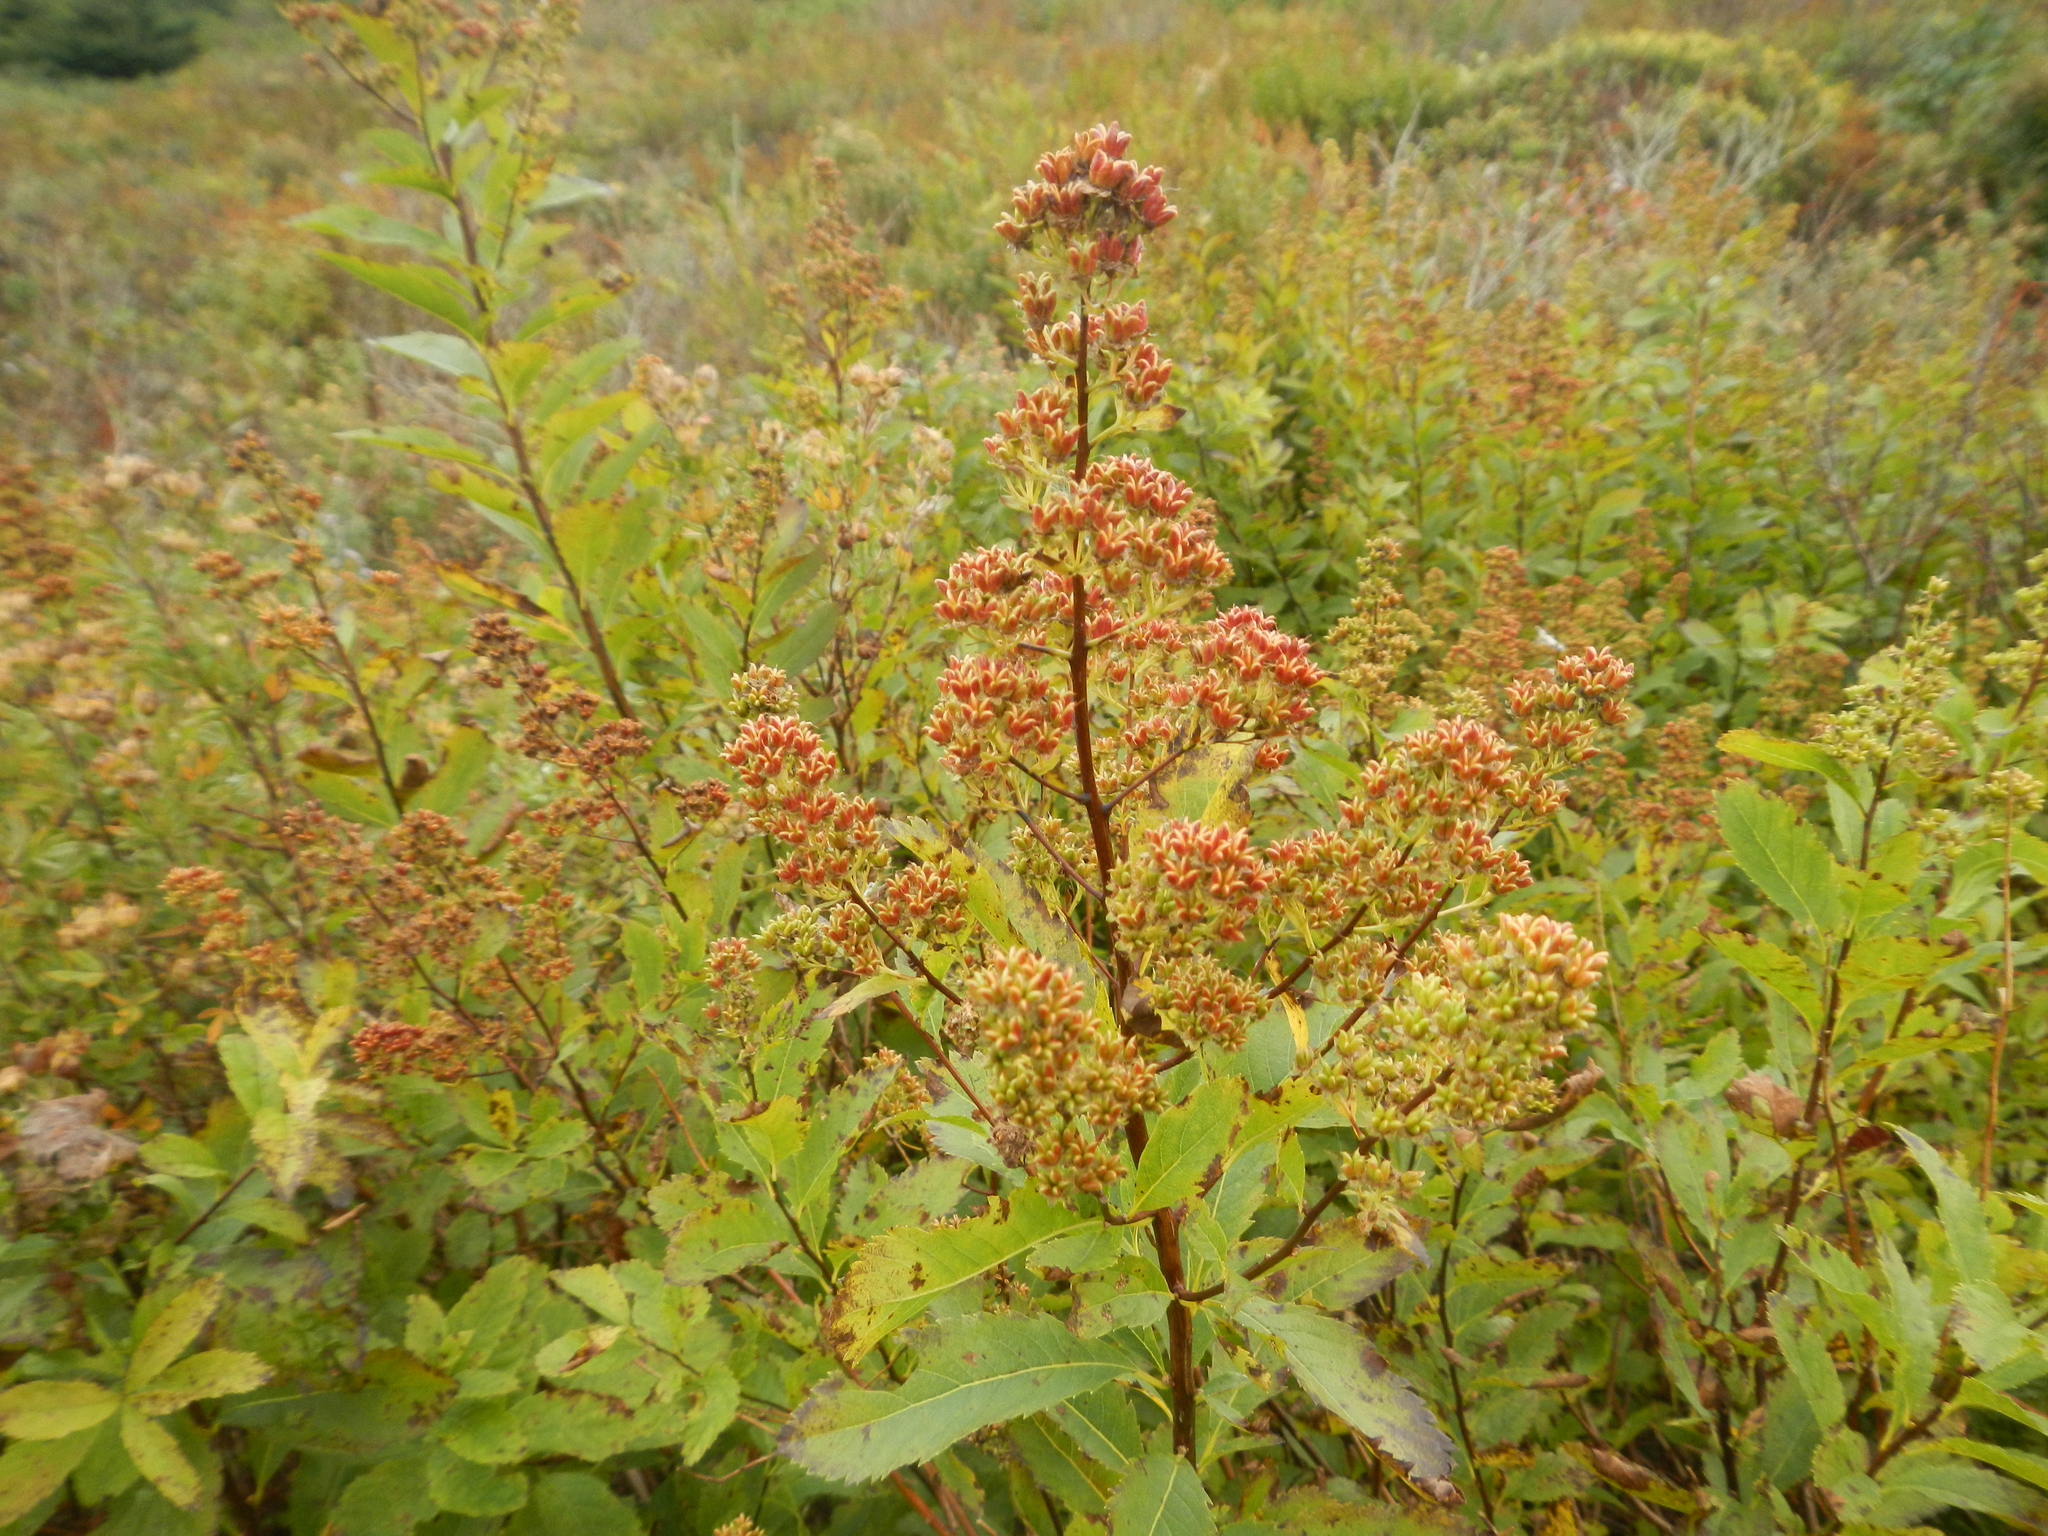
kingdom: Plantae
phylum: Tracheophyta
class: Magnoliopsida
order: Rosales
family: Rosaceae
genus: Spiraea
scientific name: Spiraea alba
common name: Pale bridewort
